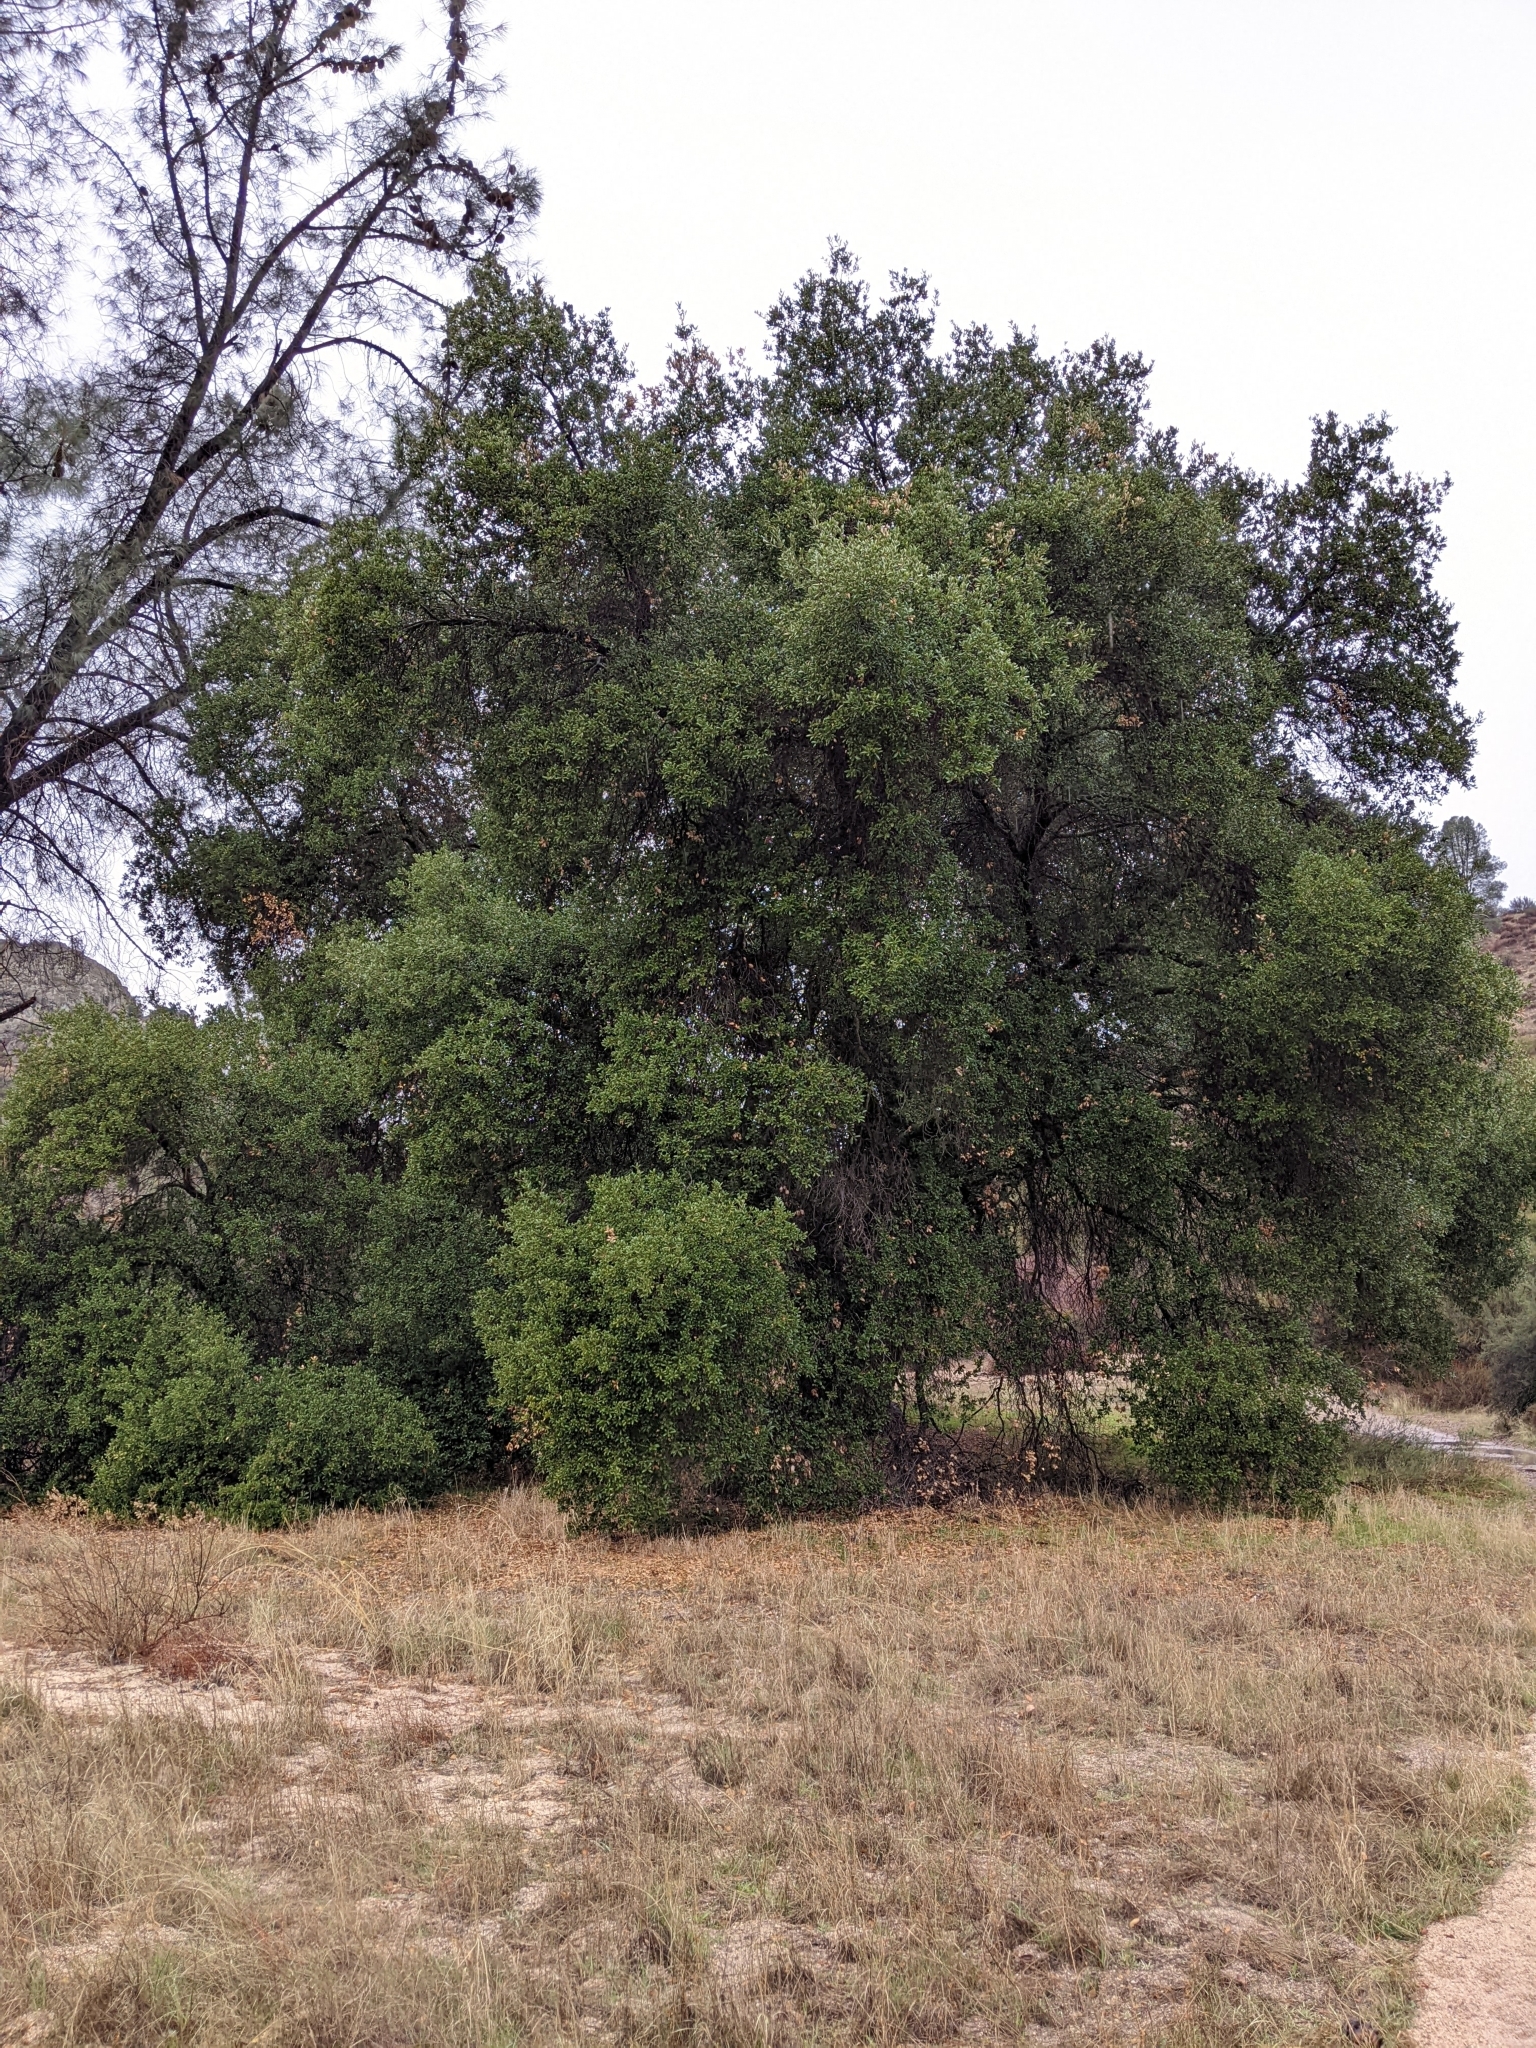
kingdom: Plantae
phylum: Tracheophyta
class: Magnoliopsida
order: Fagales
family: Fagaceae
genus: Quercus
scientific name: Quercus agrifolia
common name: California live oak
